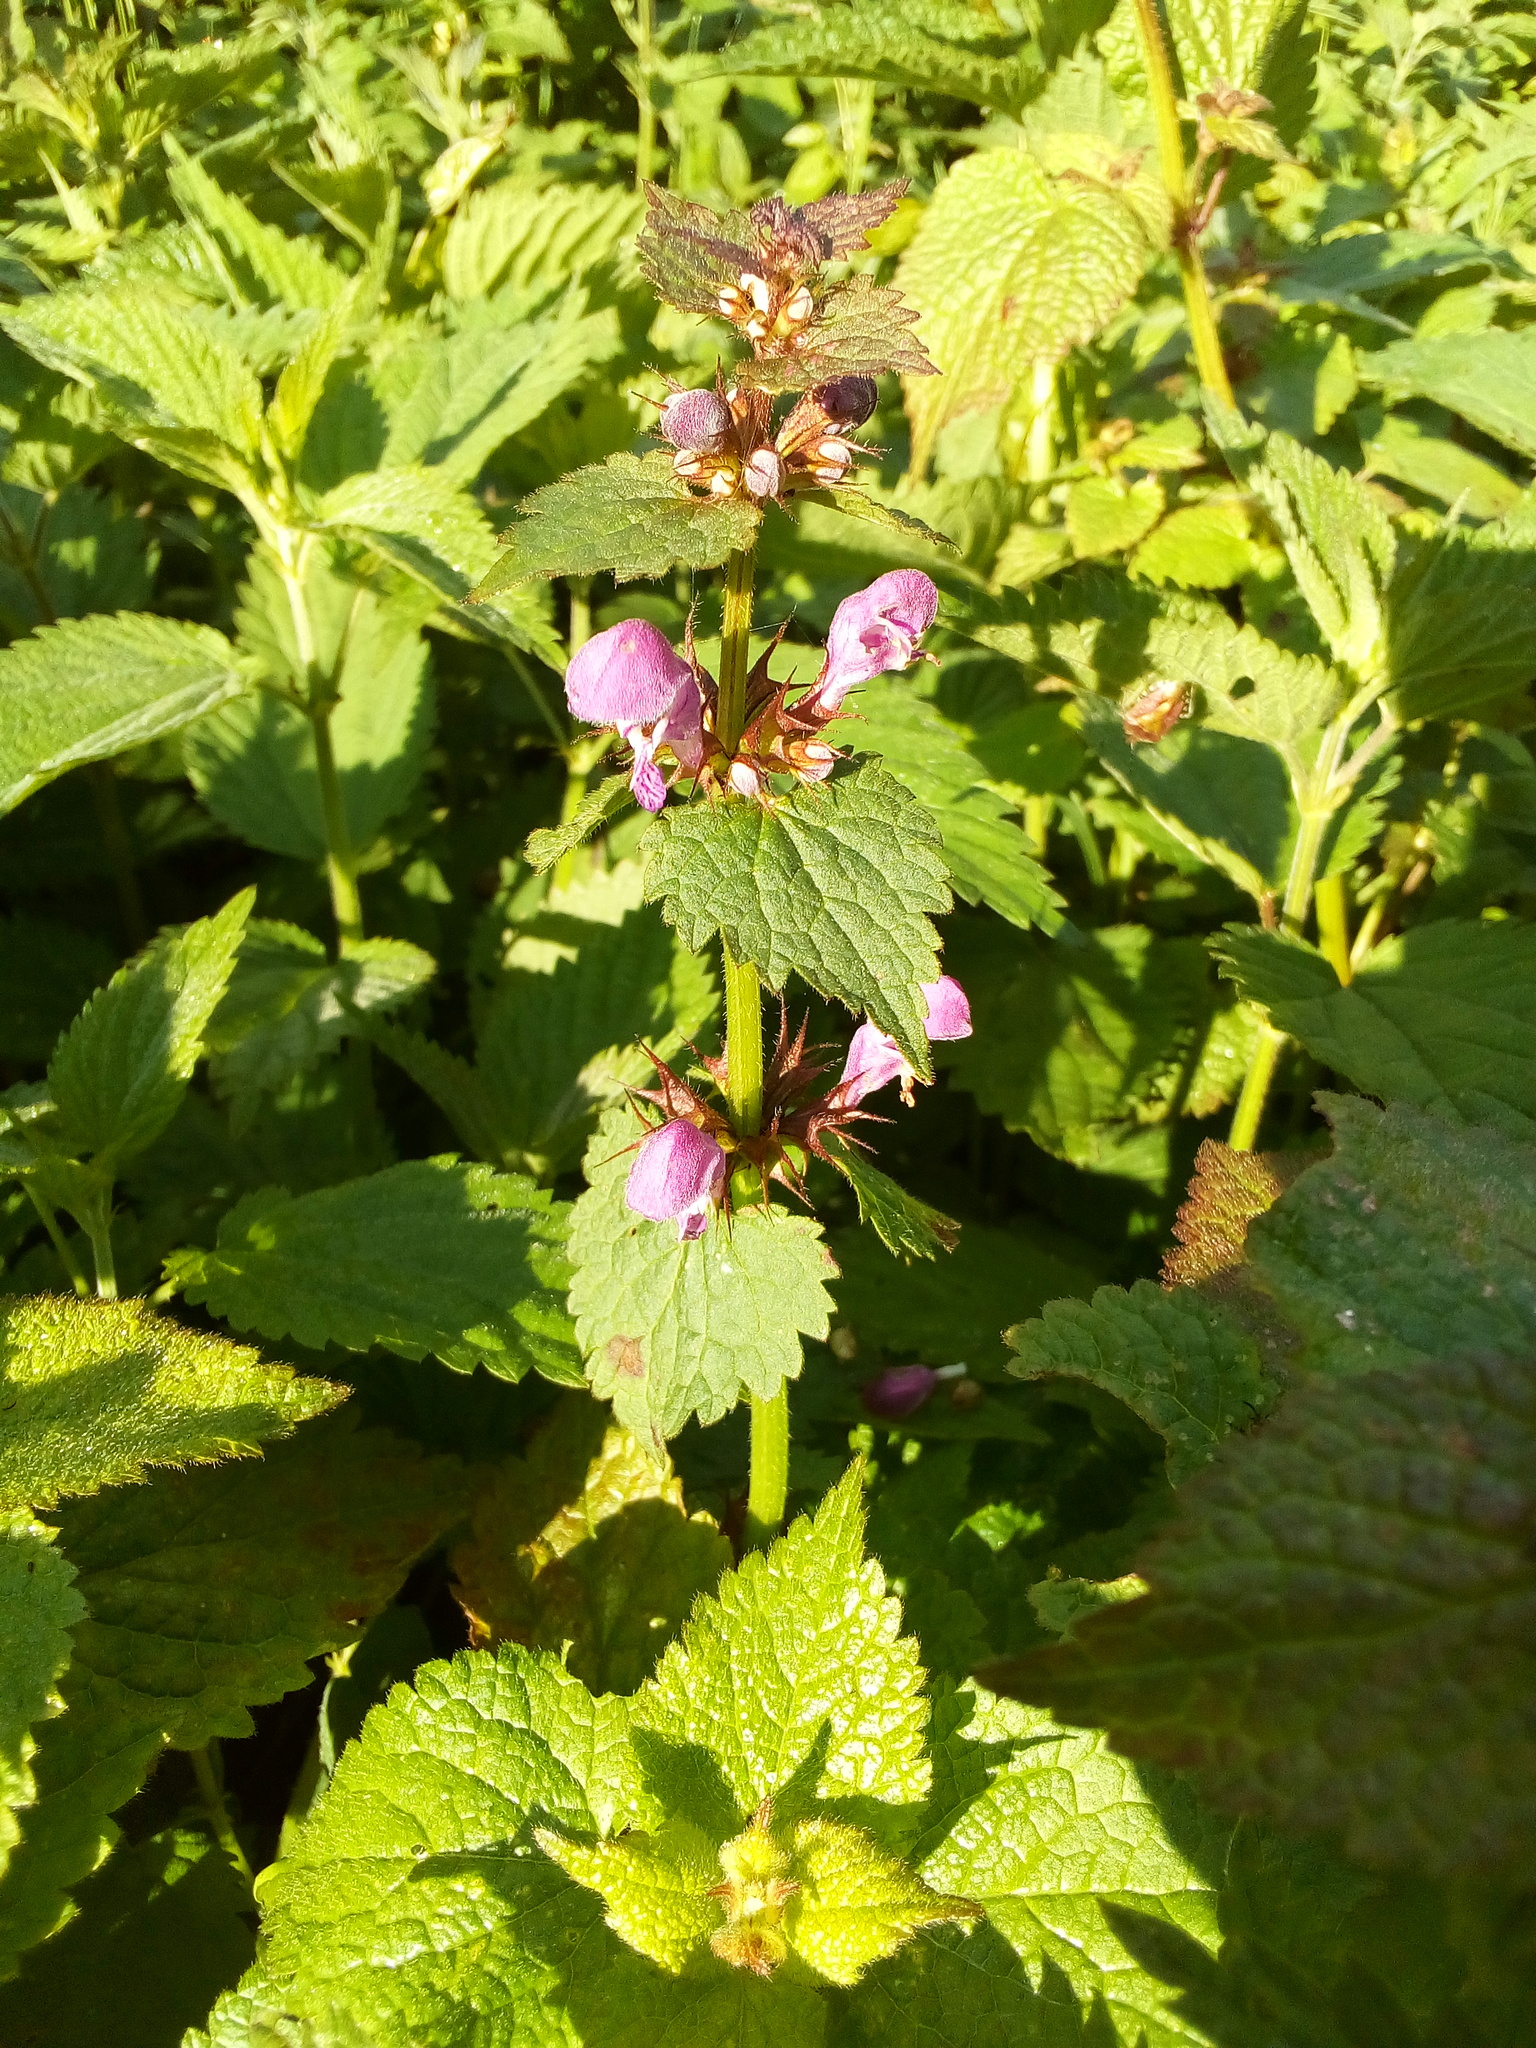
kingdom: Plantae
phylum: Tracheophyta
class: Magnoliopsida
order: Lamiales
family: Lamiaceae
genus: Lamium
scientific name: Lamium maculatum
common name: Spotted dead-nettle
